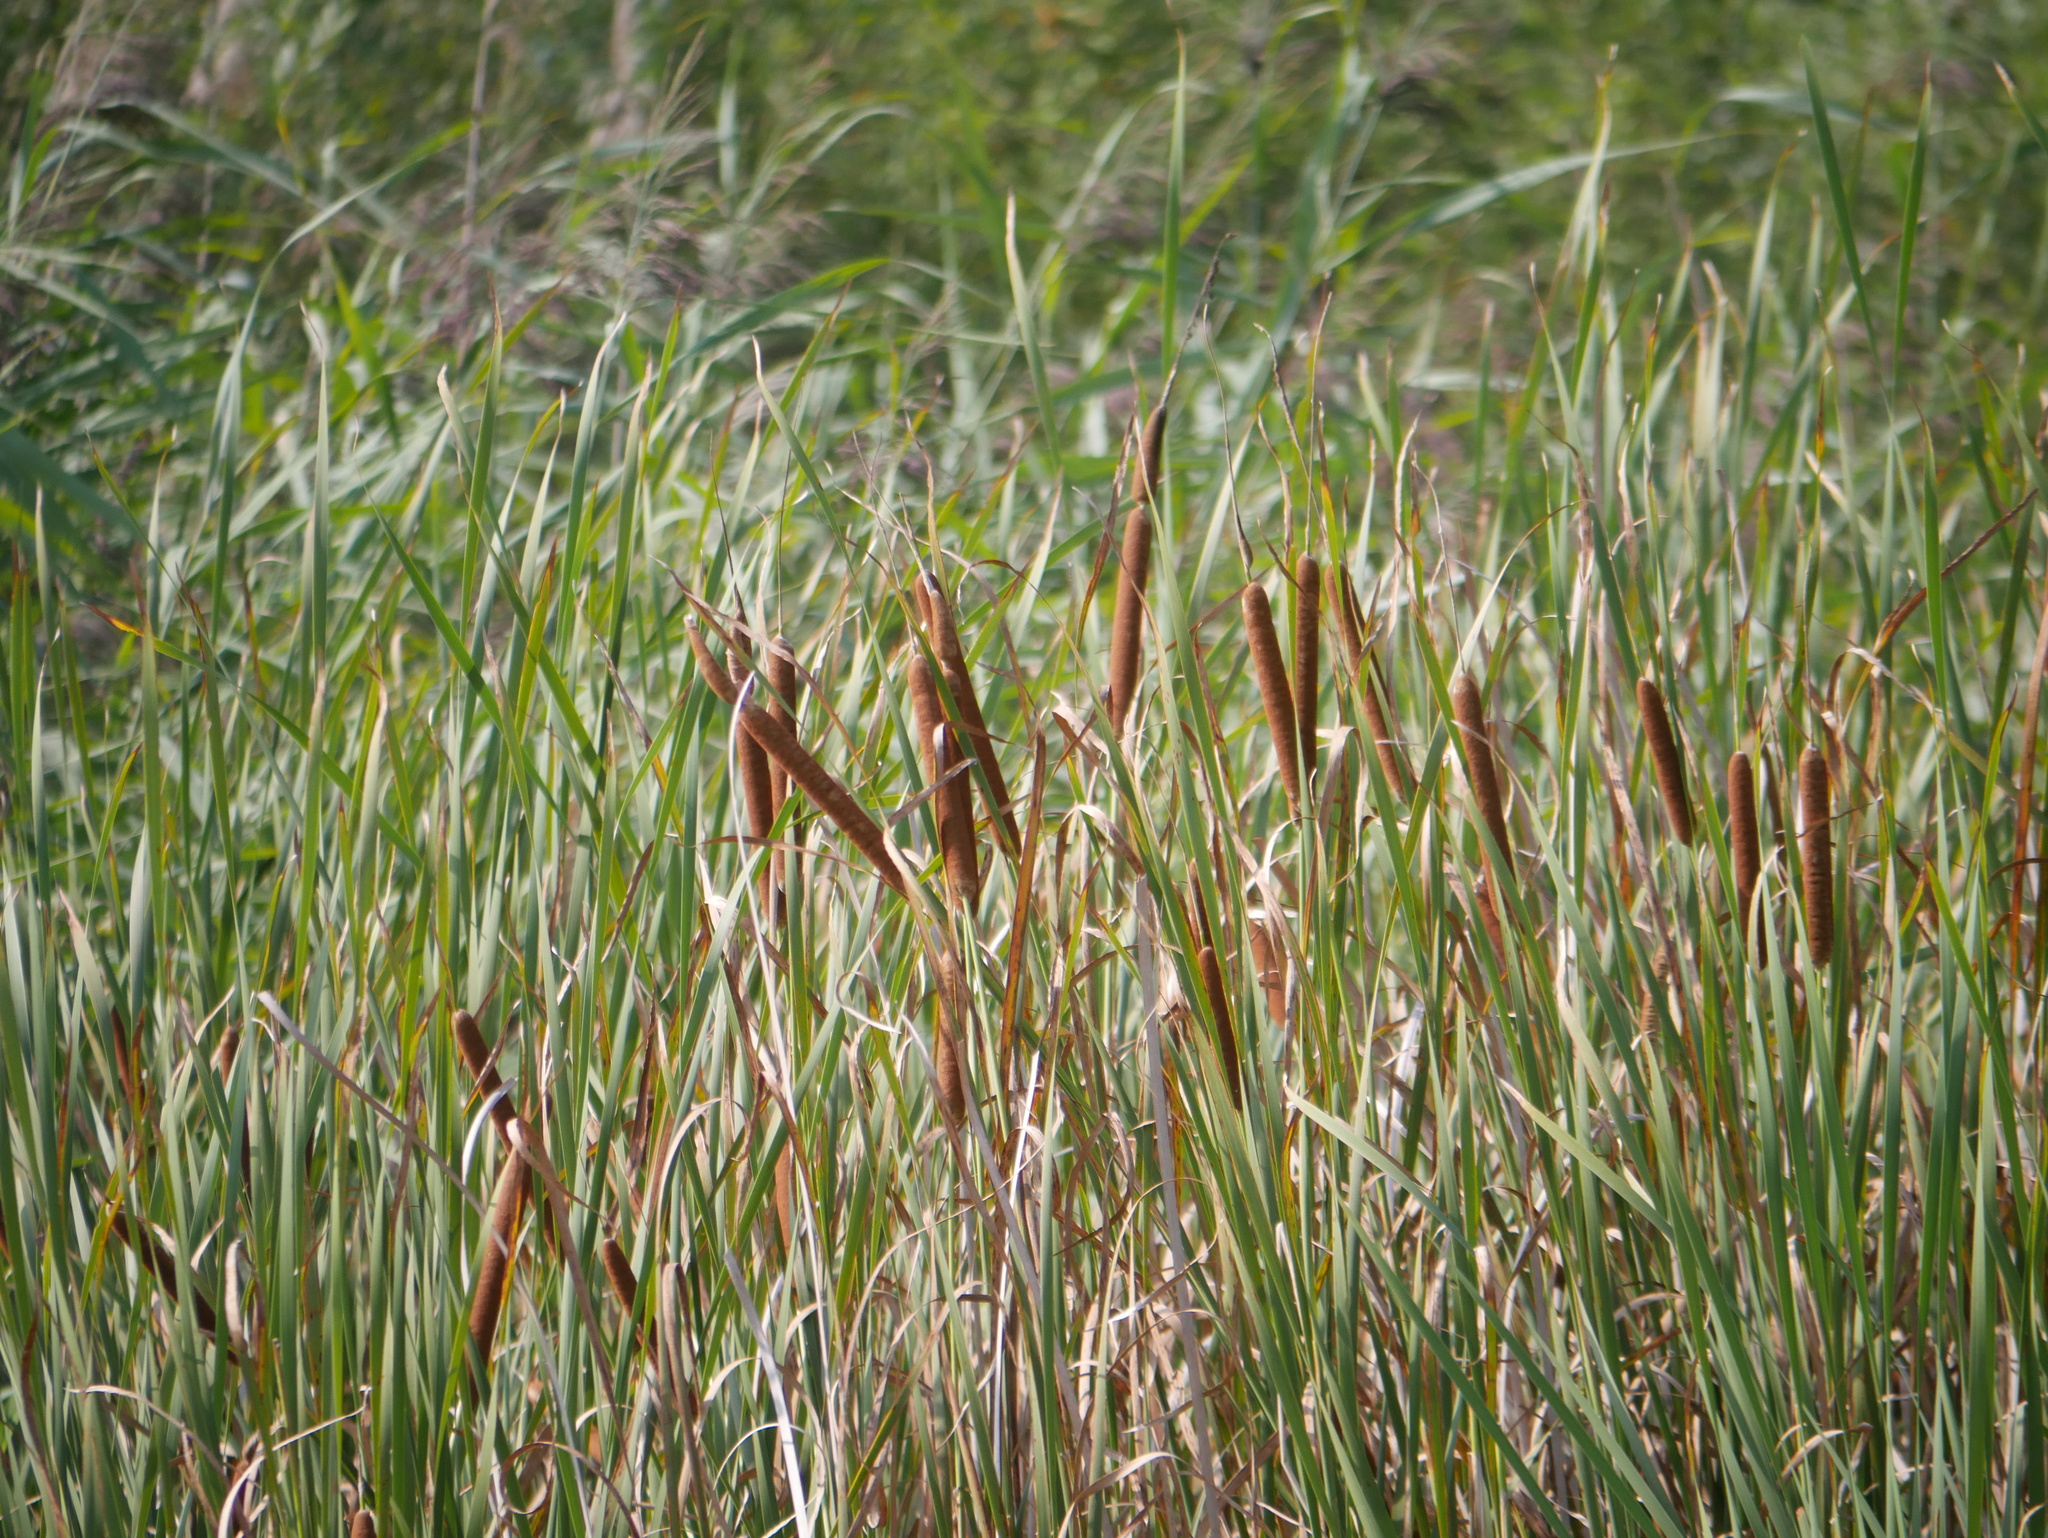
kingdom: Plantae
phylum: Tracheophyta
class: Liliopsida
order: Poales
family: Typhaceae
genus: Typha
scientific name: Typha angustifolia
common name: Lesser bulrush
